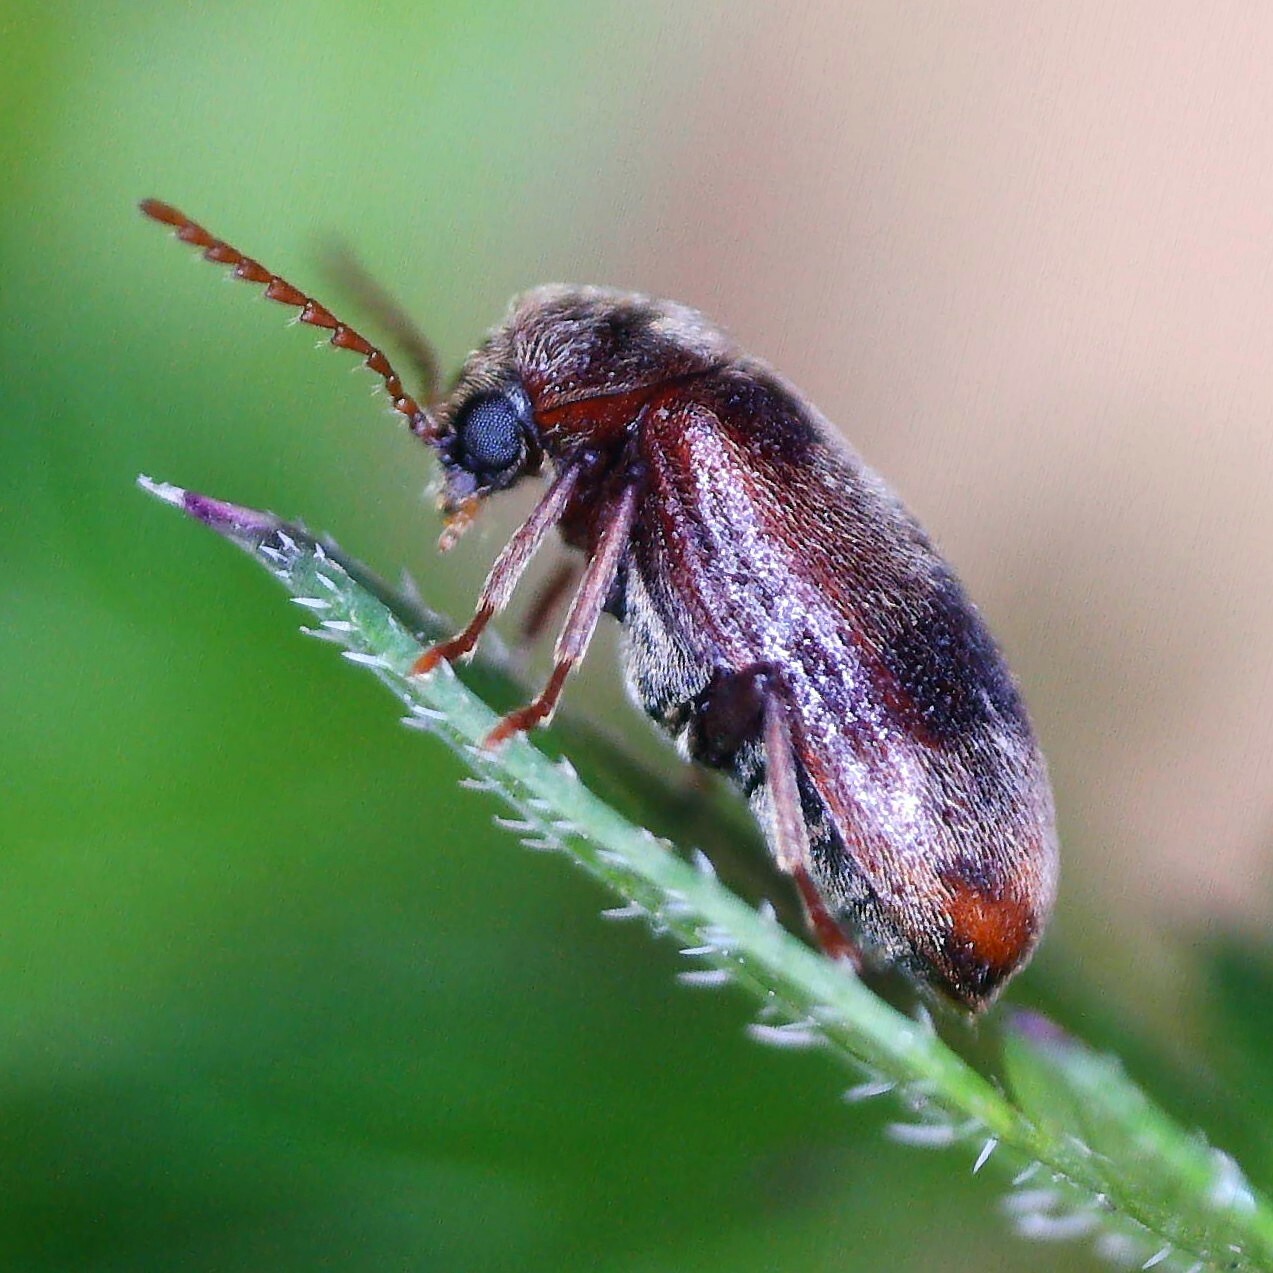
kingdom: Animalia
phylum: Arthropoda
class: Insecta
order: Coleoptera
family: Ptinidae
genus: Ochina
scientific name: Ochina ptinoides
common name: Ivy boring beetle
